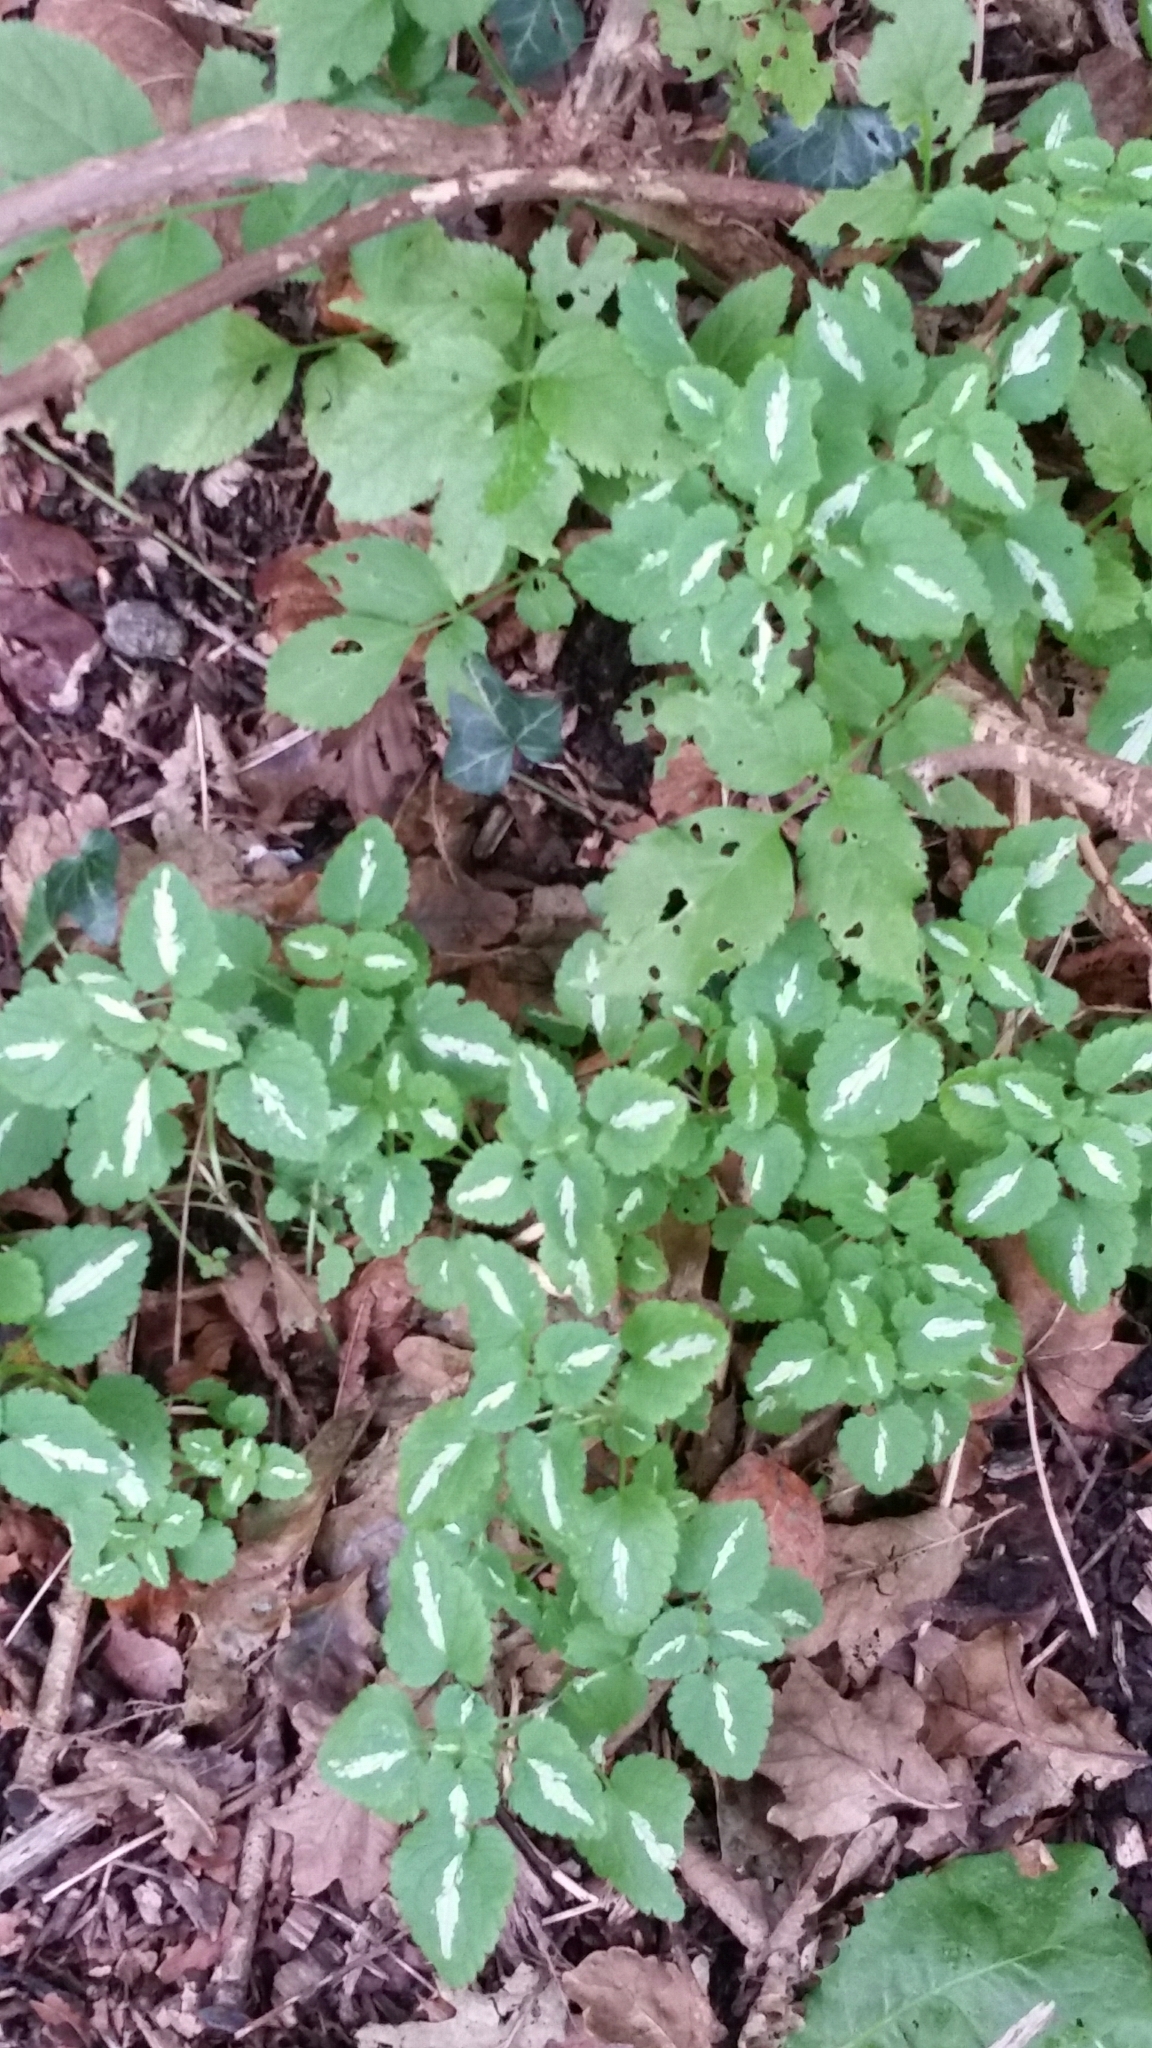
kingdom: Plantae
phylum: Tracheophyta
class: Magnoliopsida
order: Lamiales
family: Lamiaceae
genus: Lamium
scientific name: Lamium maculatum
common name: Spotted dead-nettle
